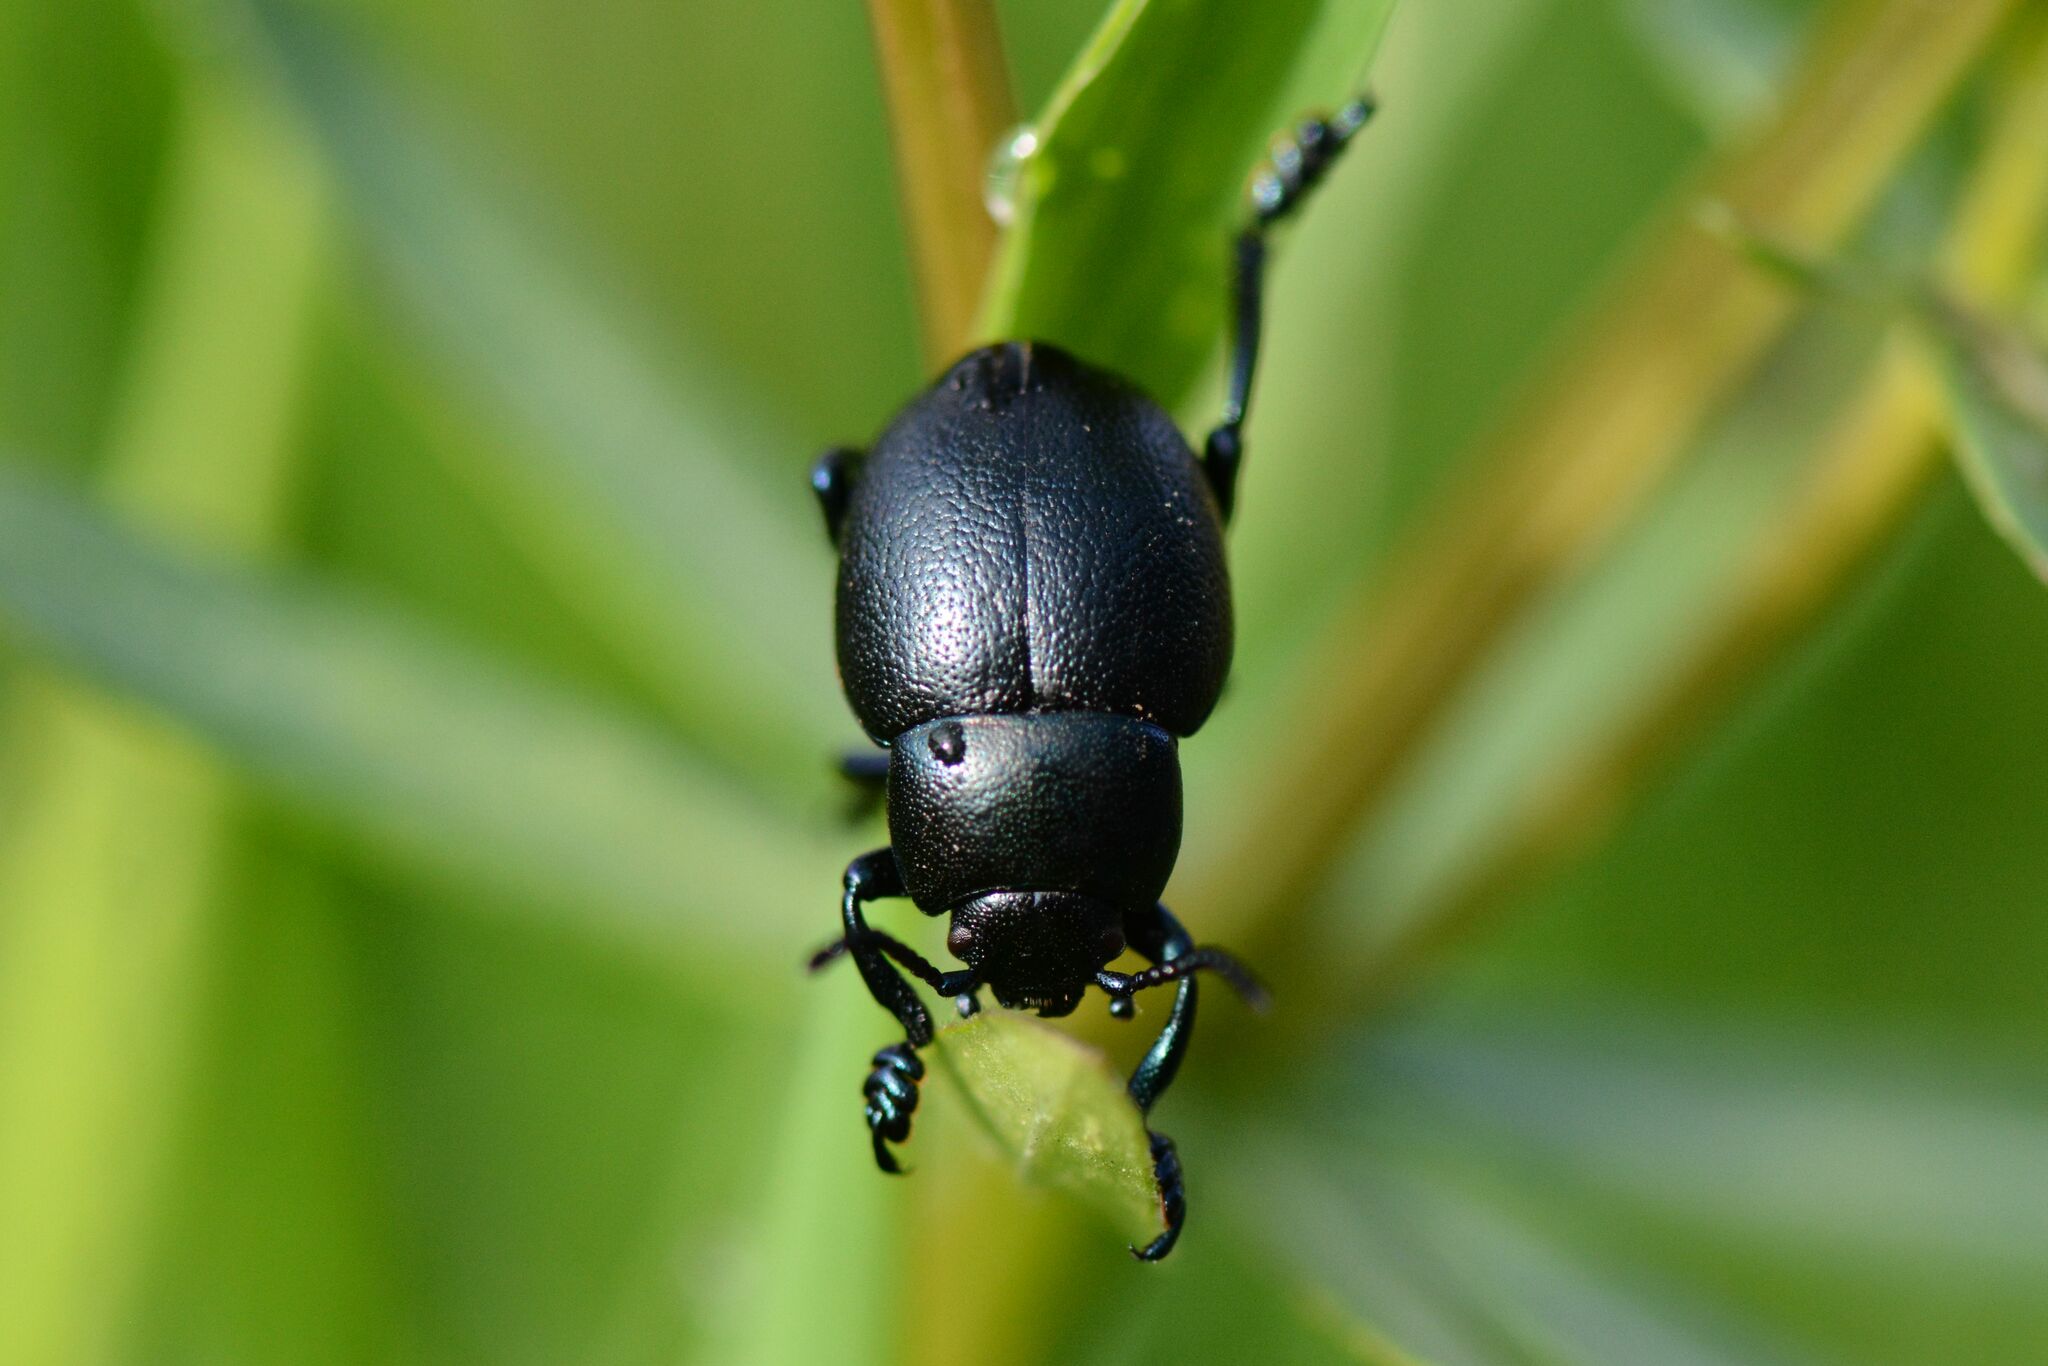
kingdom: Animalia
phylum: Arthropoda
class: Insecta
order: Coleoptera
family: Chrysomelidae
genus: Timarcha
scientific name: Timarcha goettingensis
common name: Small bloody-nosed beetle
